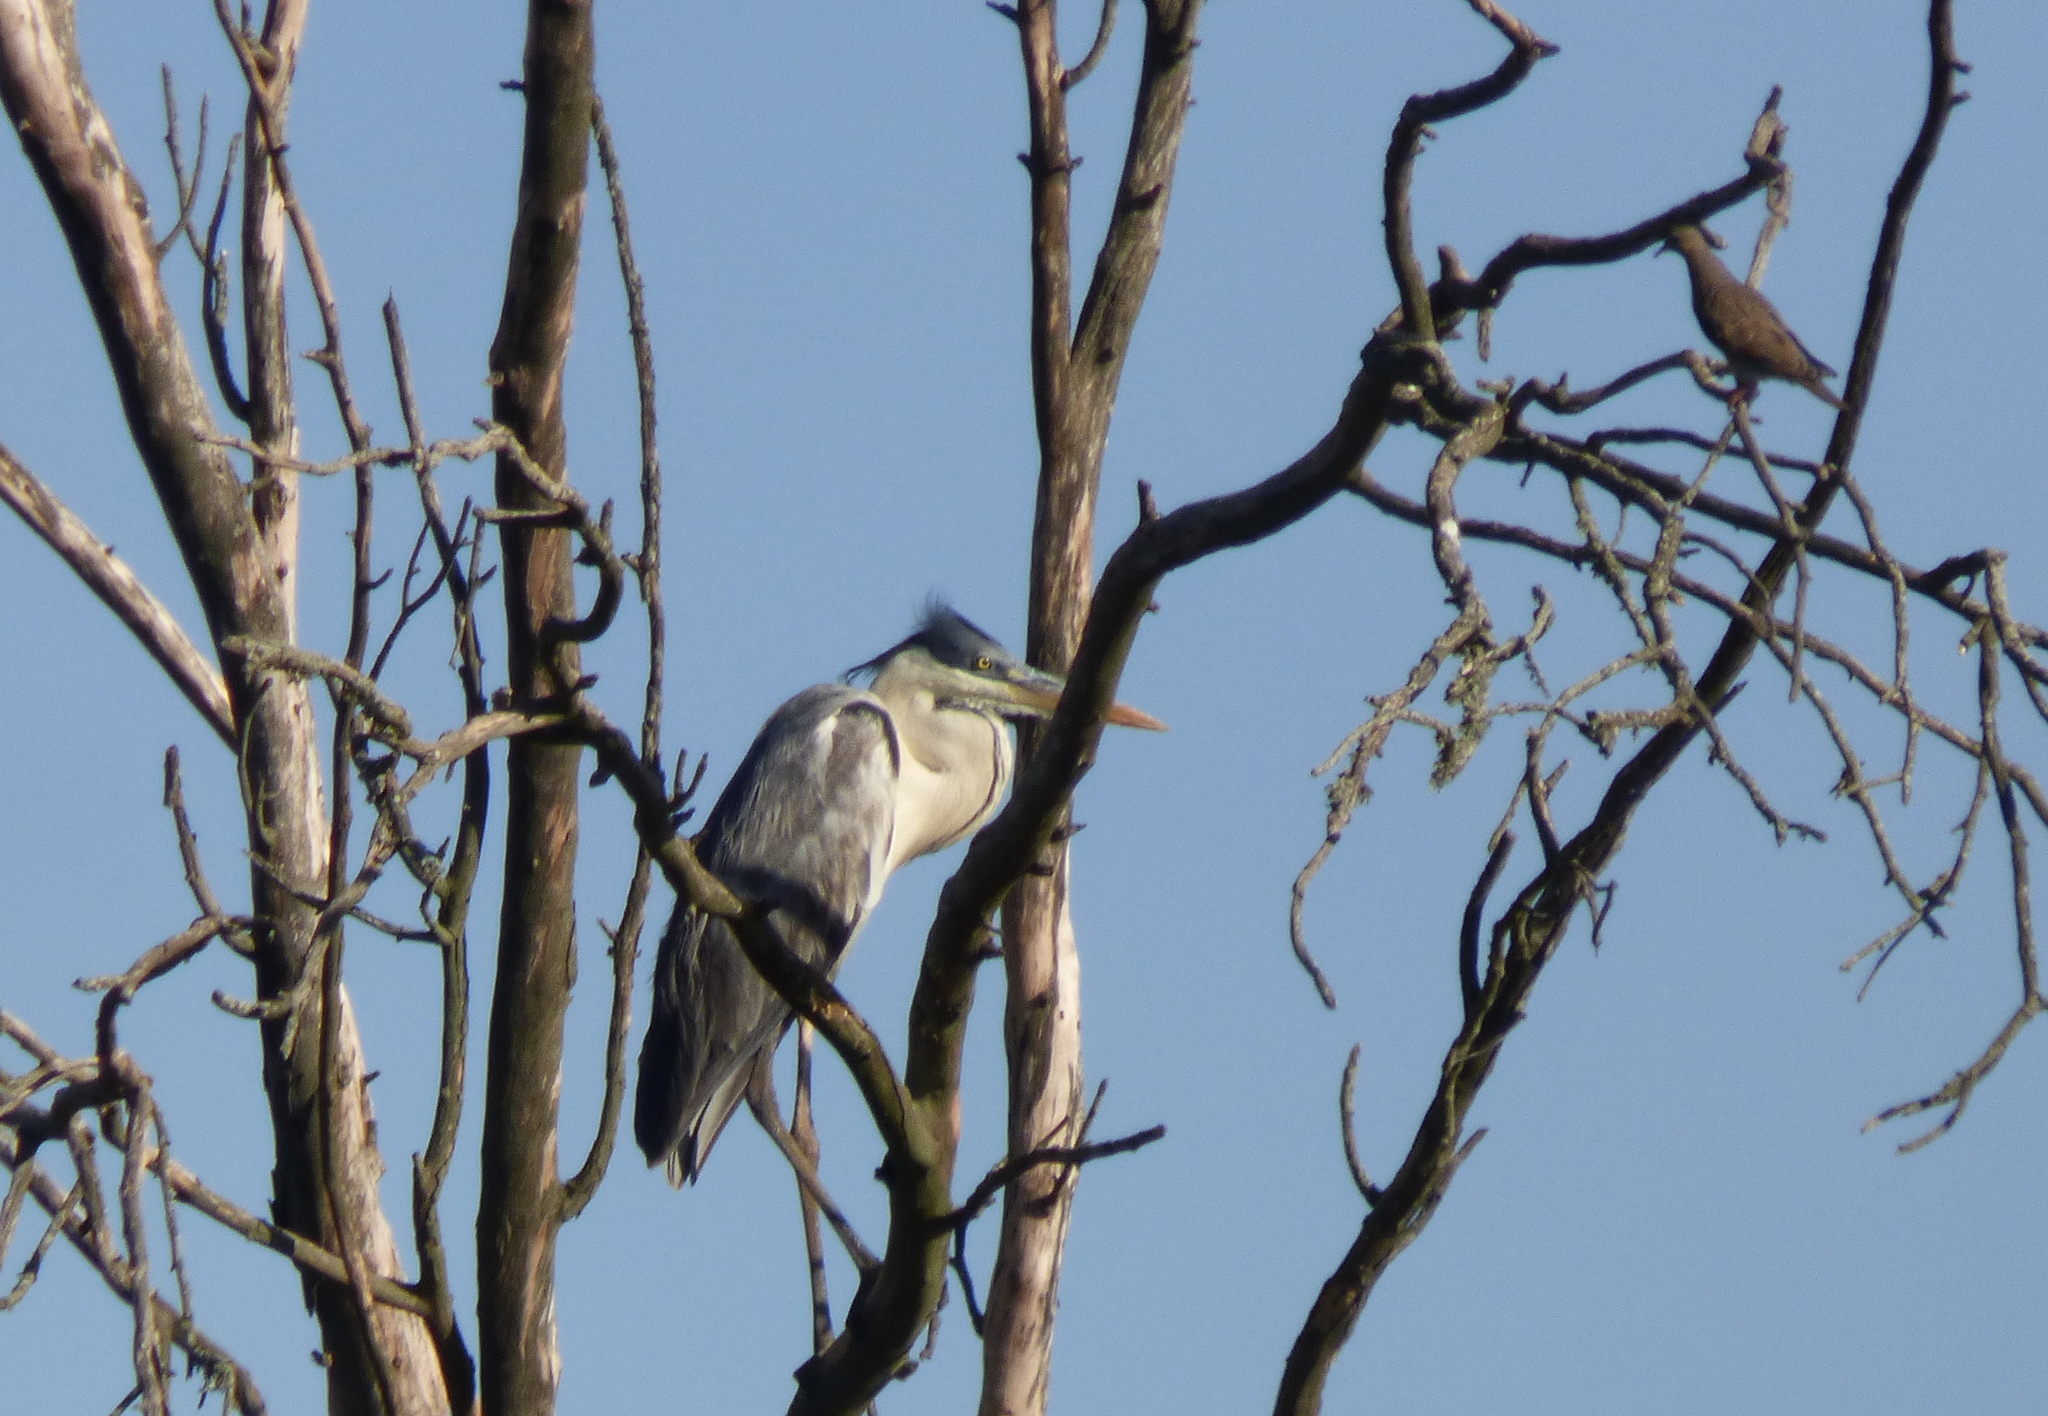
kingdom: Animalia
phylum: Chordata
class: Aves
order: Pelecaniformes
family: Ardeidae
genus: Ardea
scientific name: Ardea cocoi
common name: Cocoi heron
